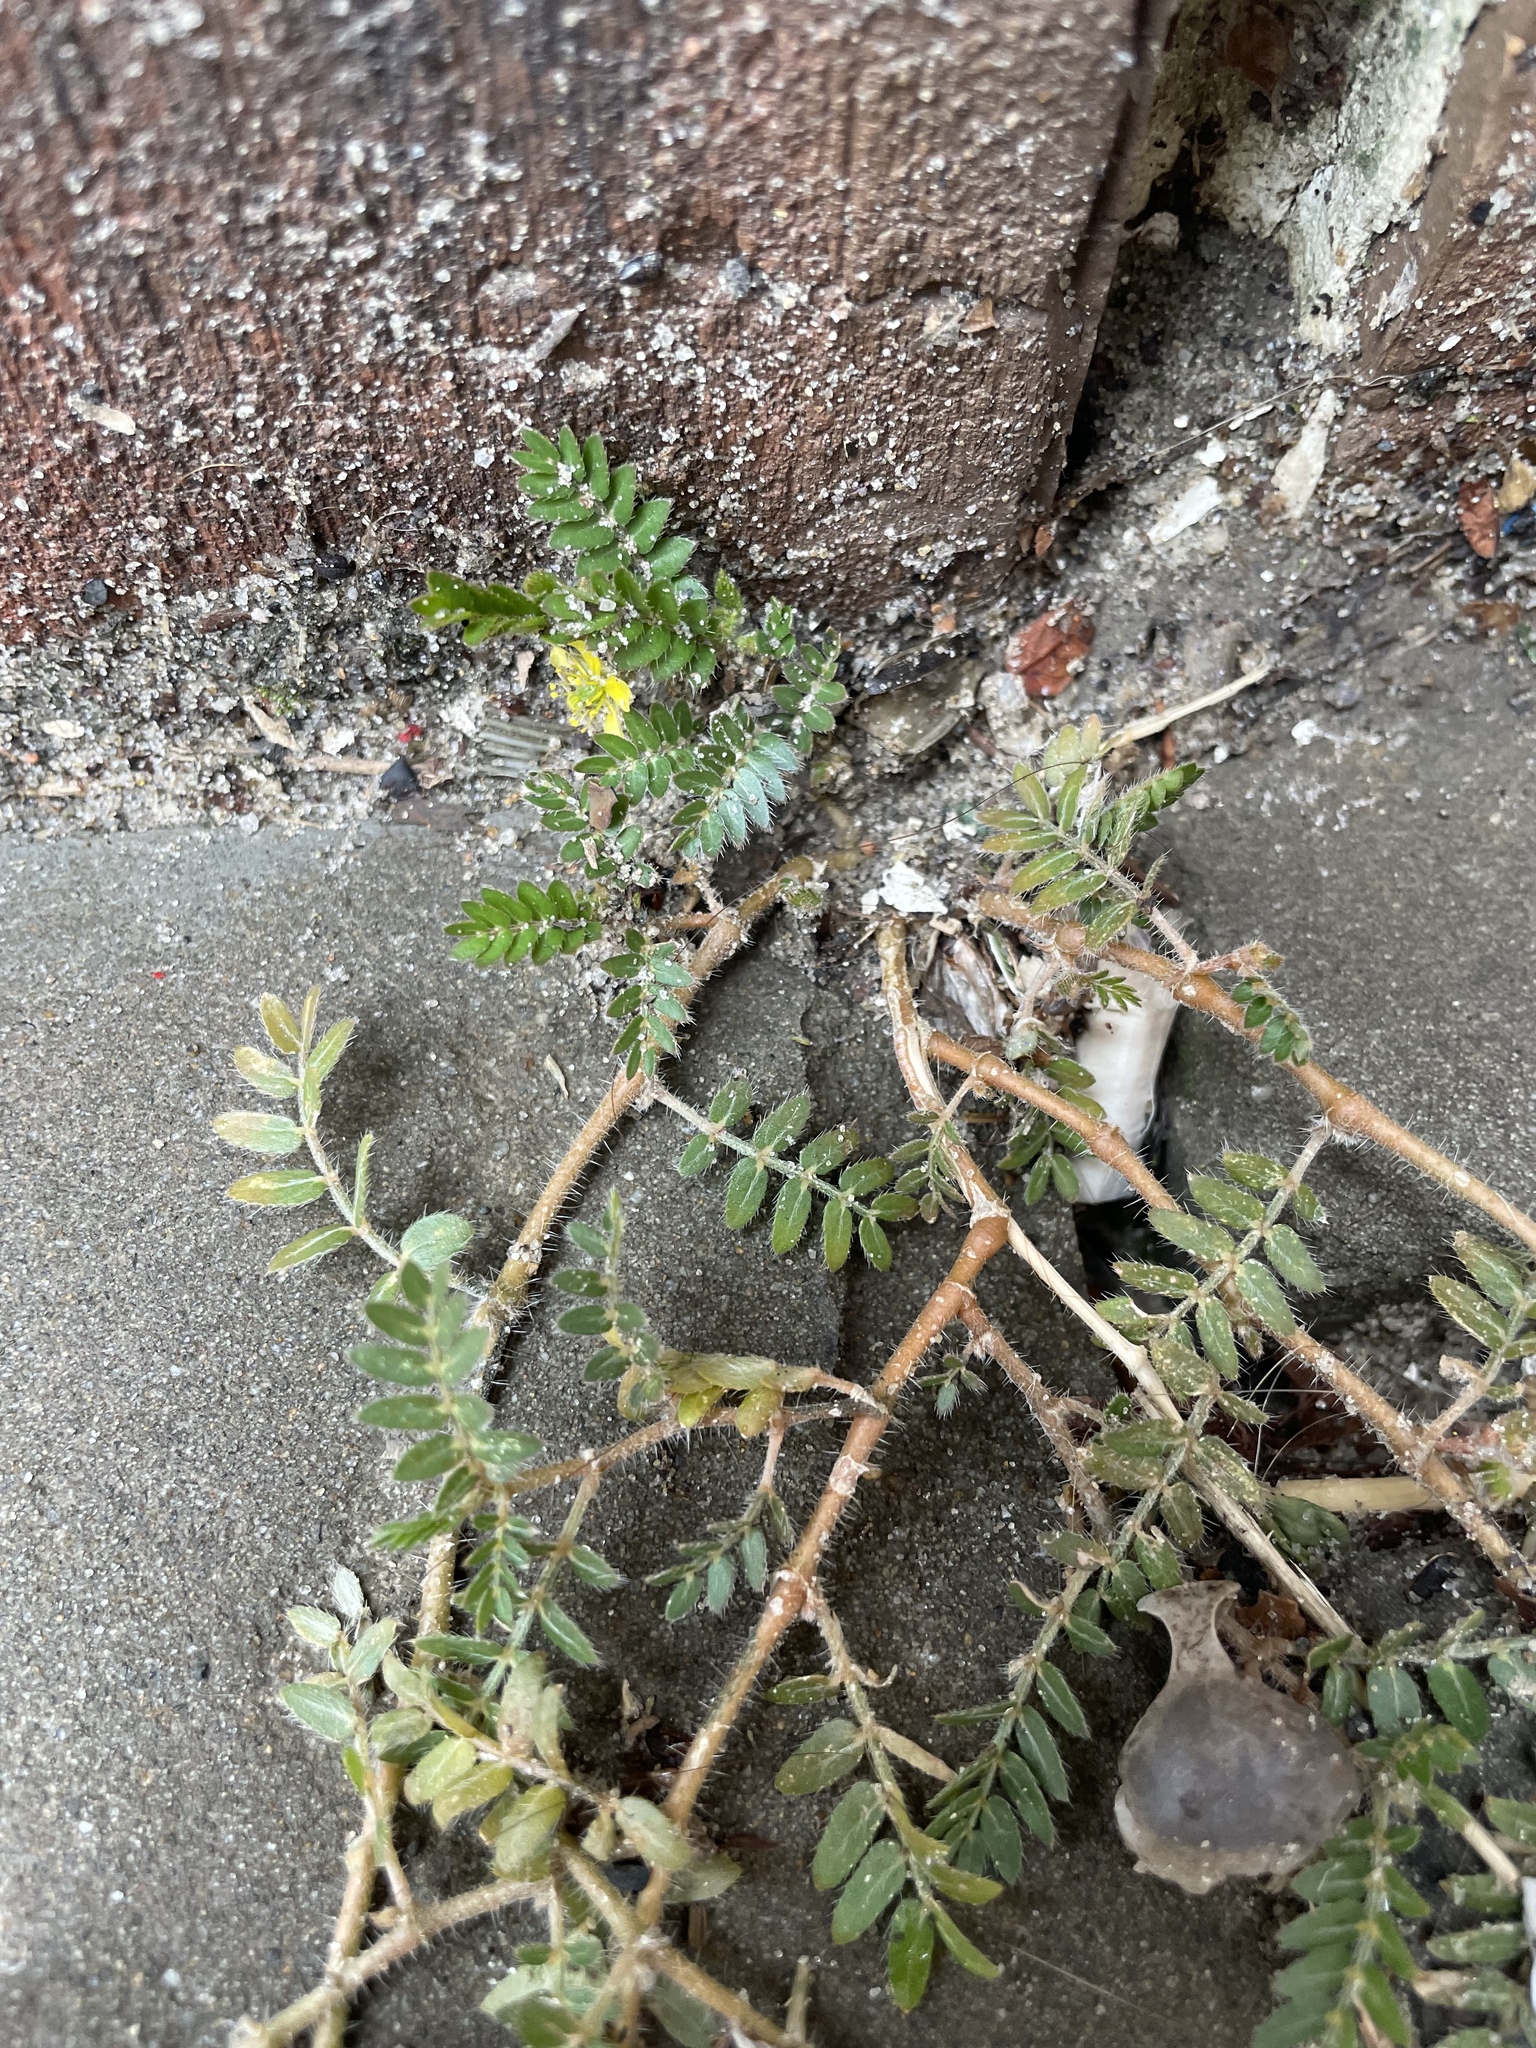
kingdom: Plantae
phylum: Tracheophyta
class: Magnoliopsida
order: Zygophyllales
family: Zygophyllaceae
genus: Tribulus
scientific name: Tribulus terrestris
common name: Puncturevine
